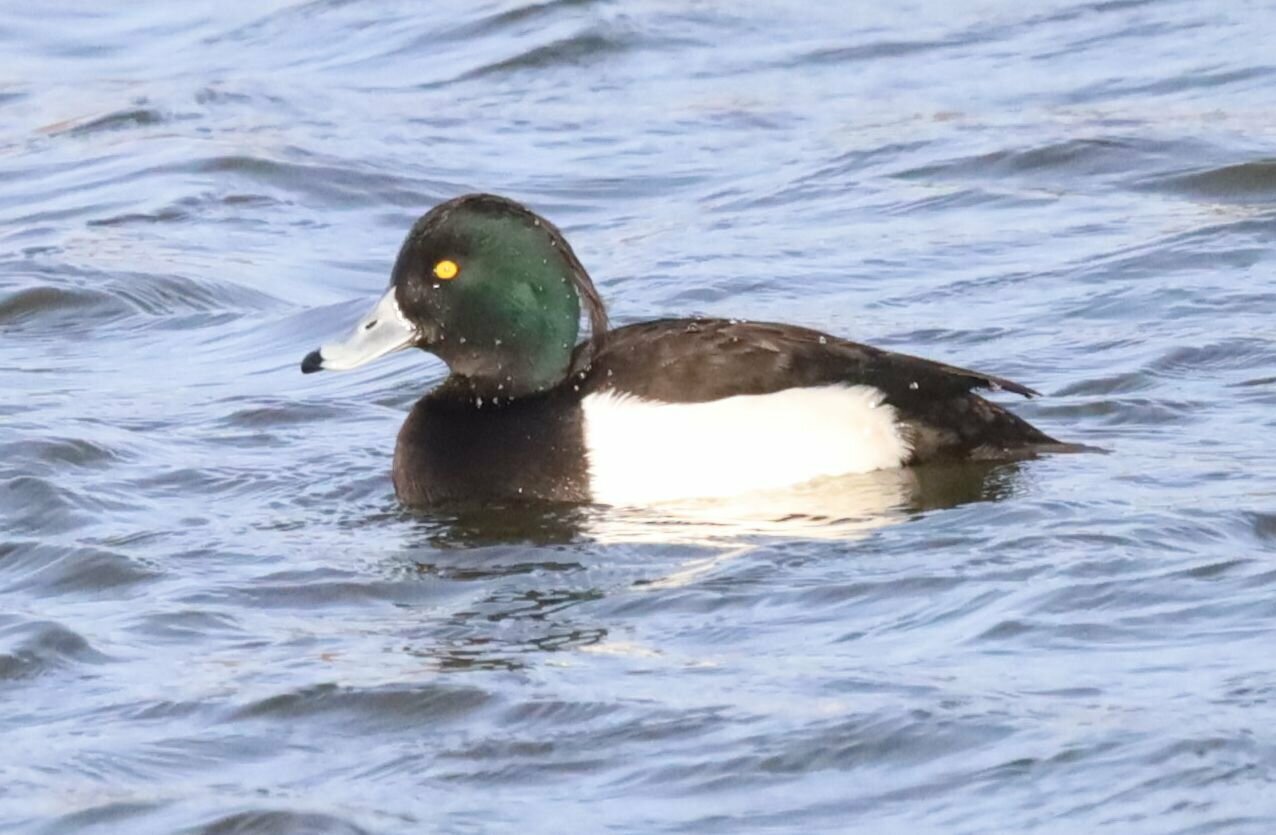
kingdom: Animalia
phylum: Chordata
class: Aves
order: Anseriformes
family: Anatidae
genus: Aythya
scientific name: Aythya fuligula
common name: Tufted duck
